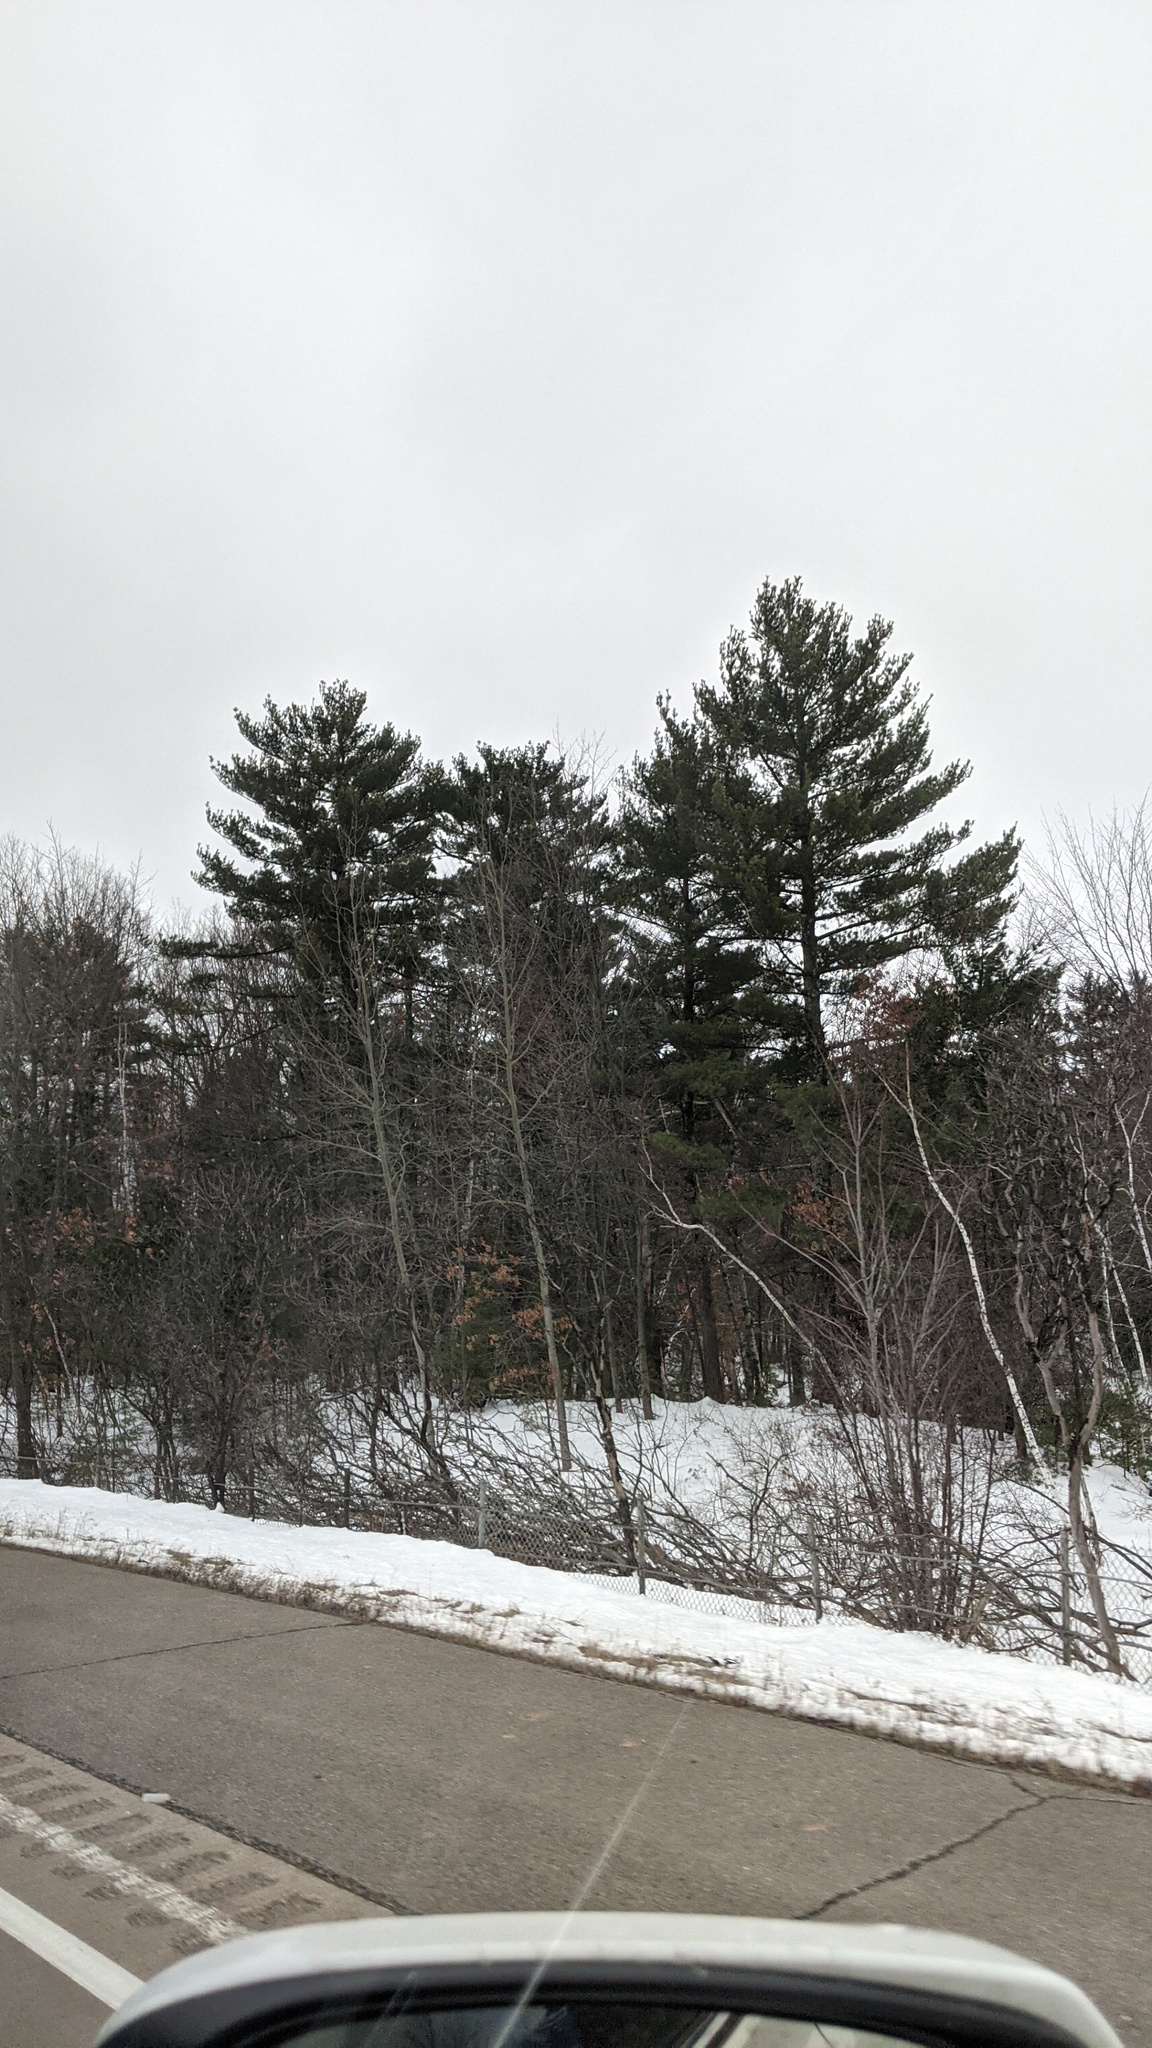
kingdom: Plantae
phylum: Tracheophyta
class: Pinopsida
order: Pinales
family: Pinaceae
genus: Pinus
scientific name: Pinus strobus
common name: Weymouth pine
